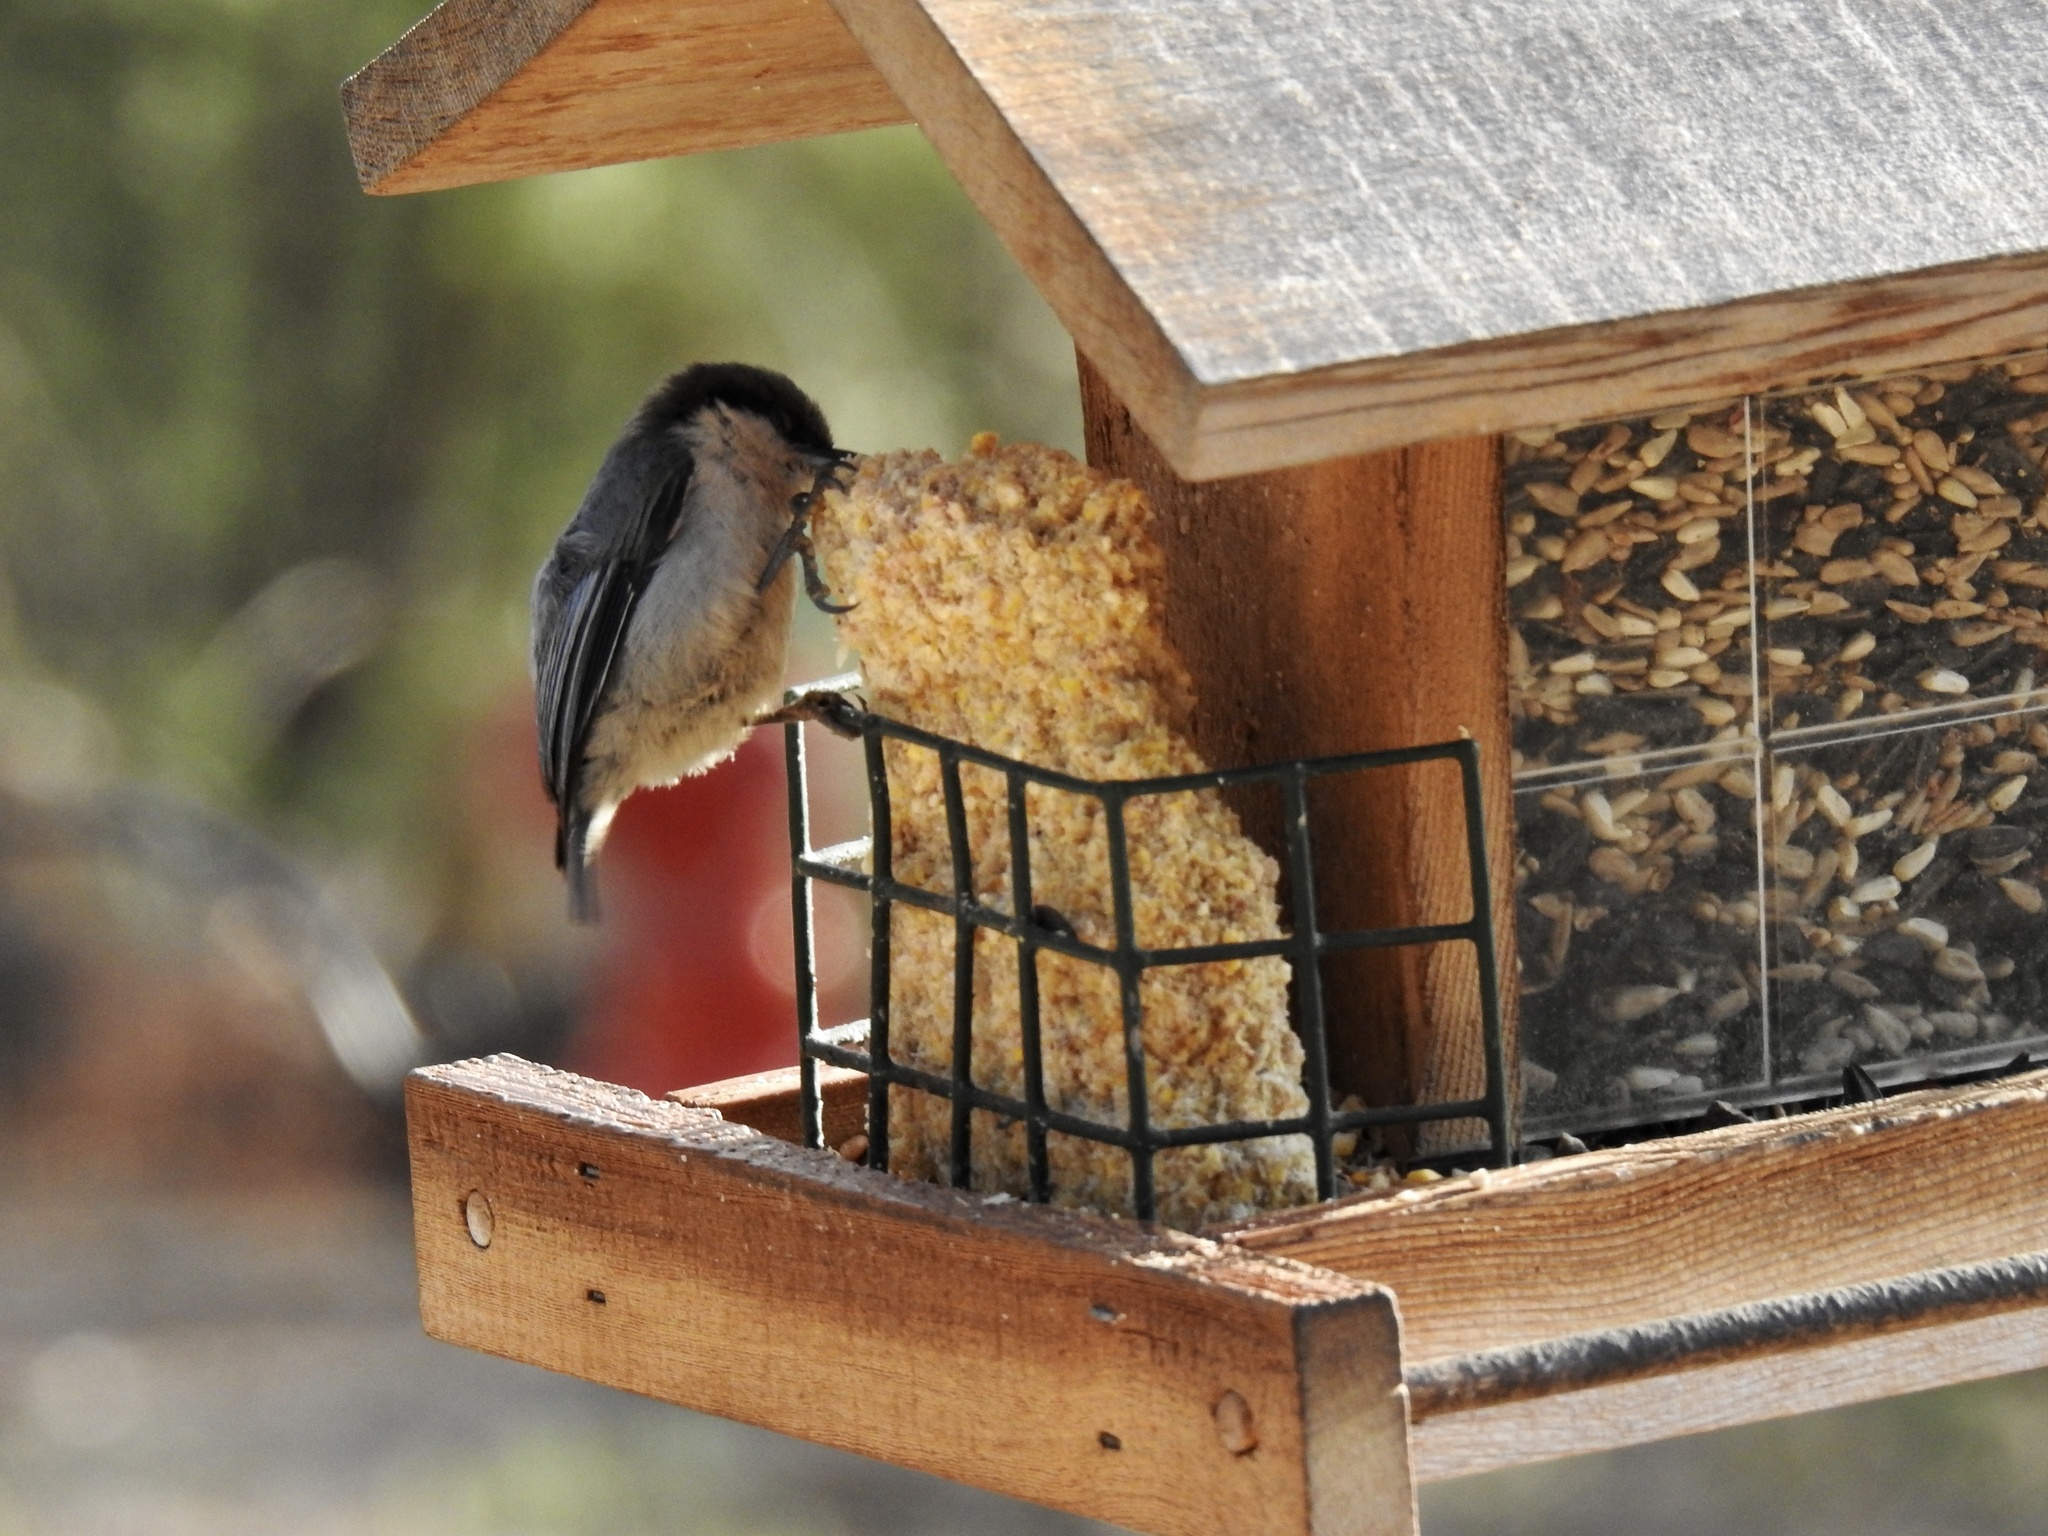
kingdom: Animalia
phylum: Chordata
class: Aves
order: Passeriformes
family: Sittidae
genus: Sitta
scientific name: Sitta pygmaea
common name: Pygmy nuthatch
